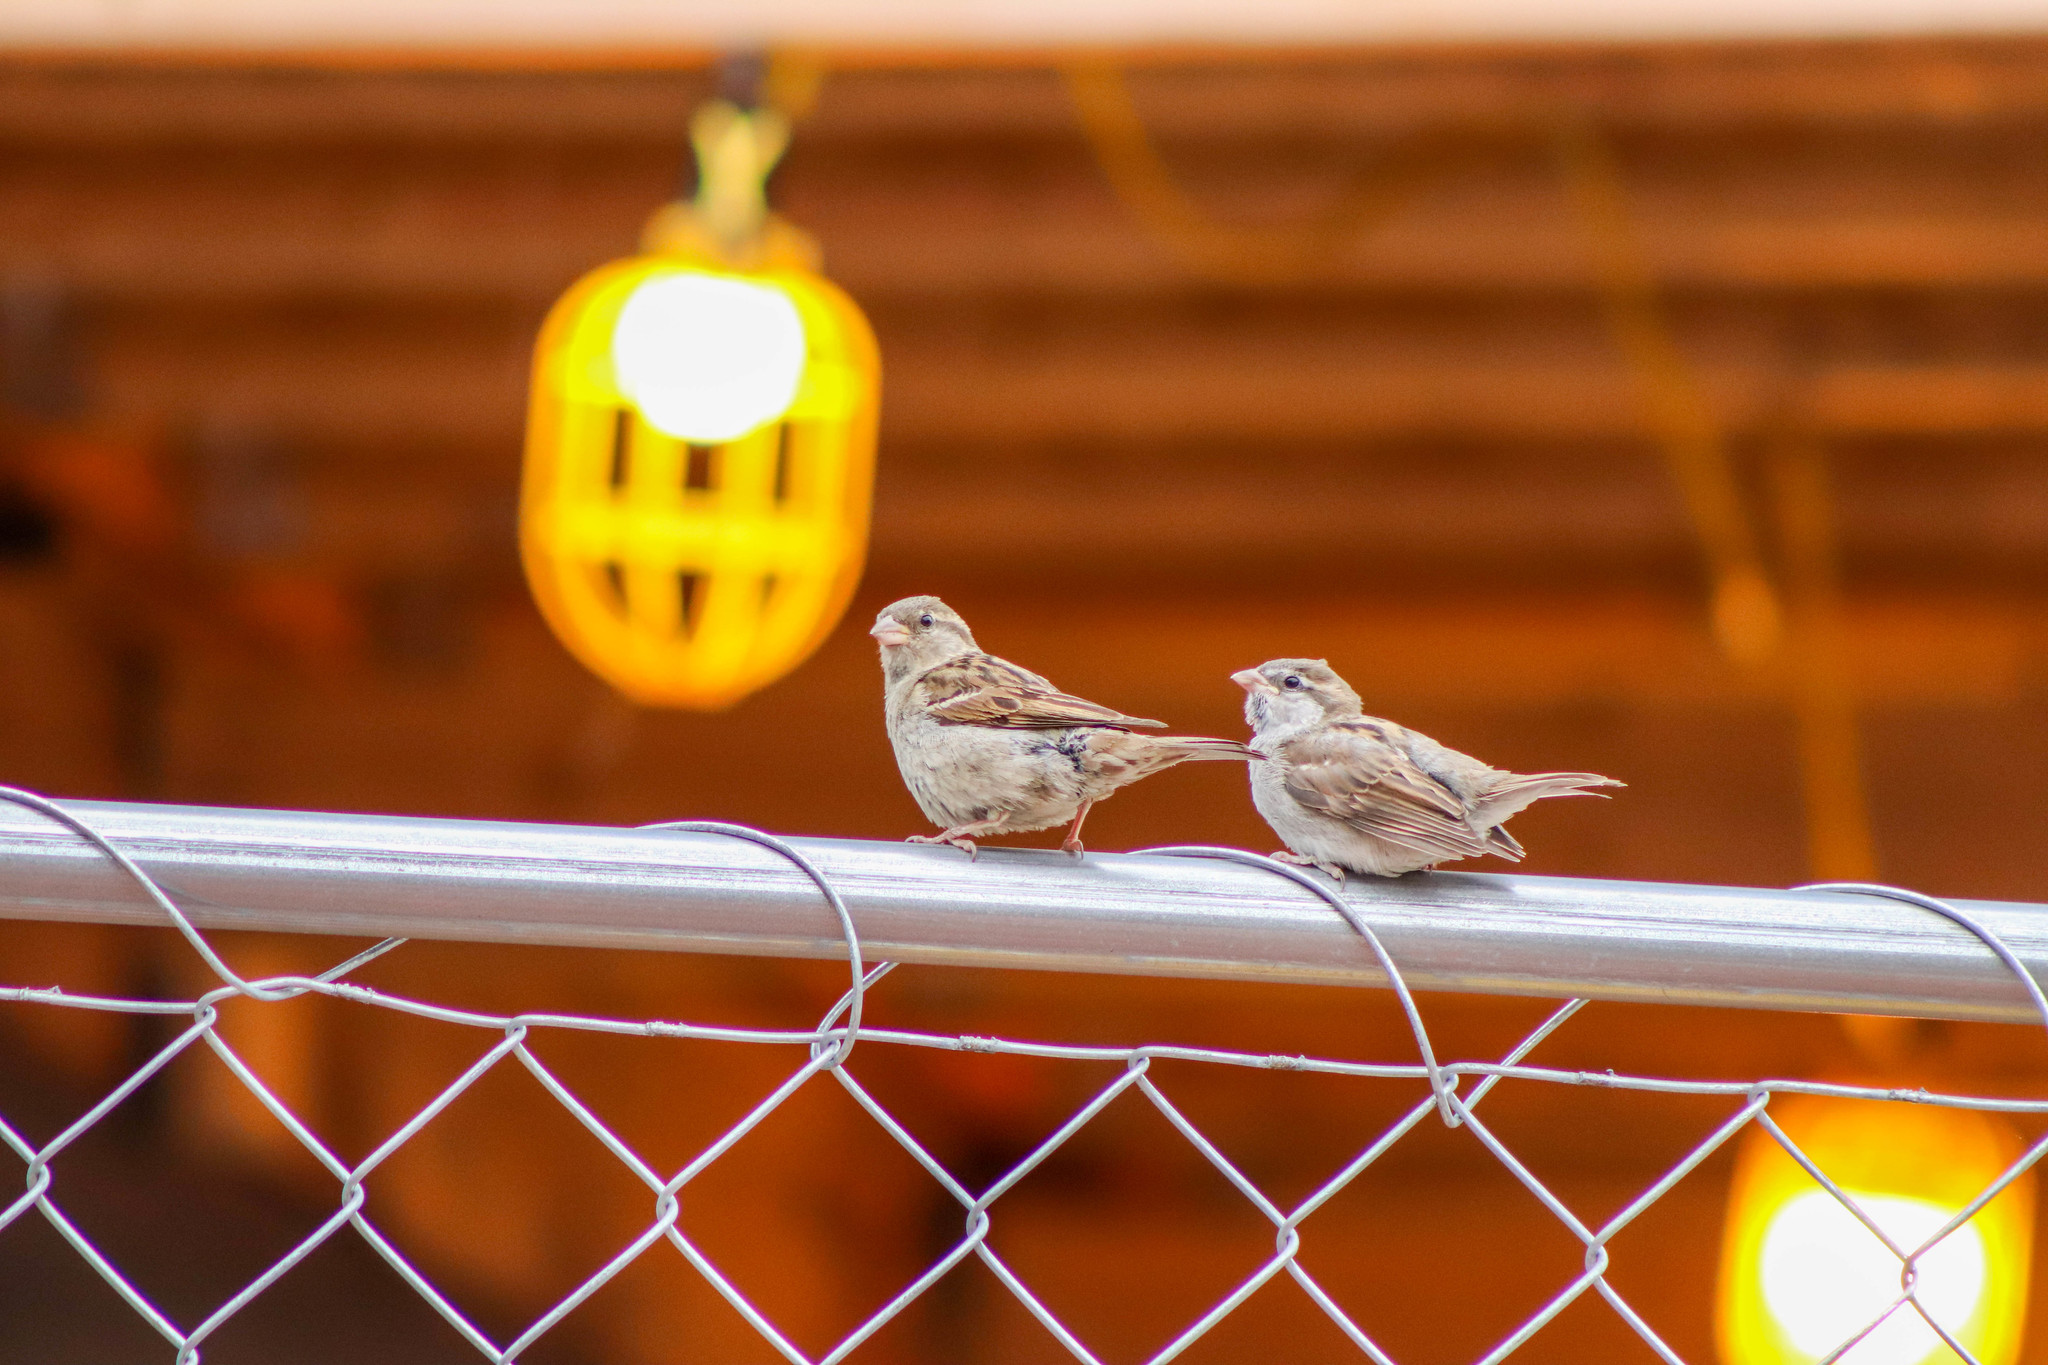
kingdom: Animalia
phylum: Chordata
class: Aves
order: Passeriformes
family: Passeridae
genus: Passer
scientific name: Passer domesticus
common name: House sparrow
